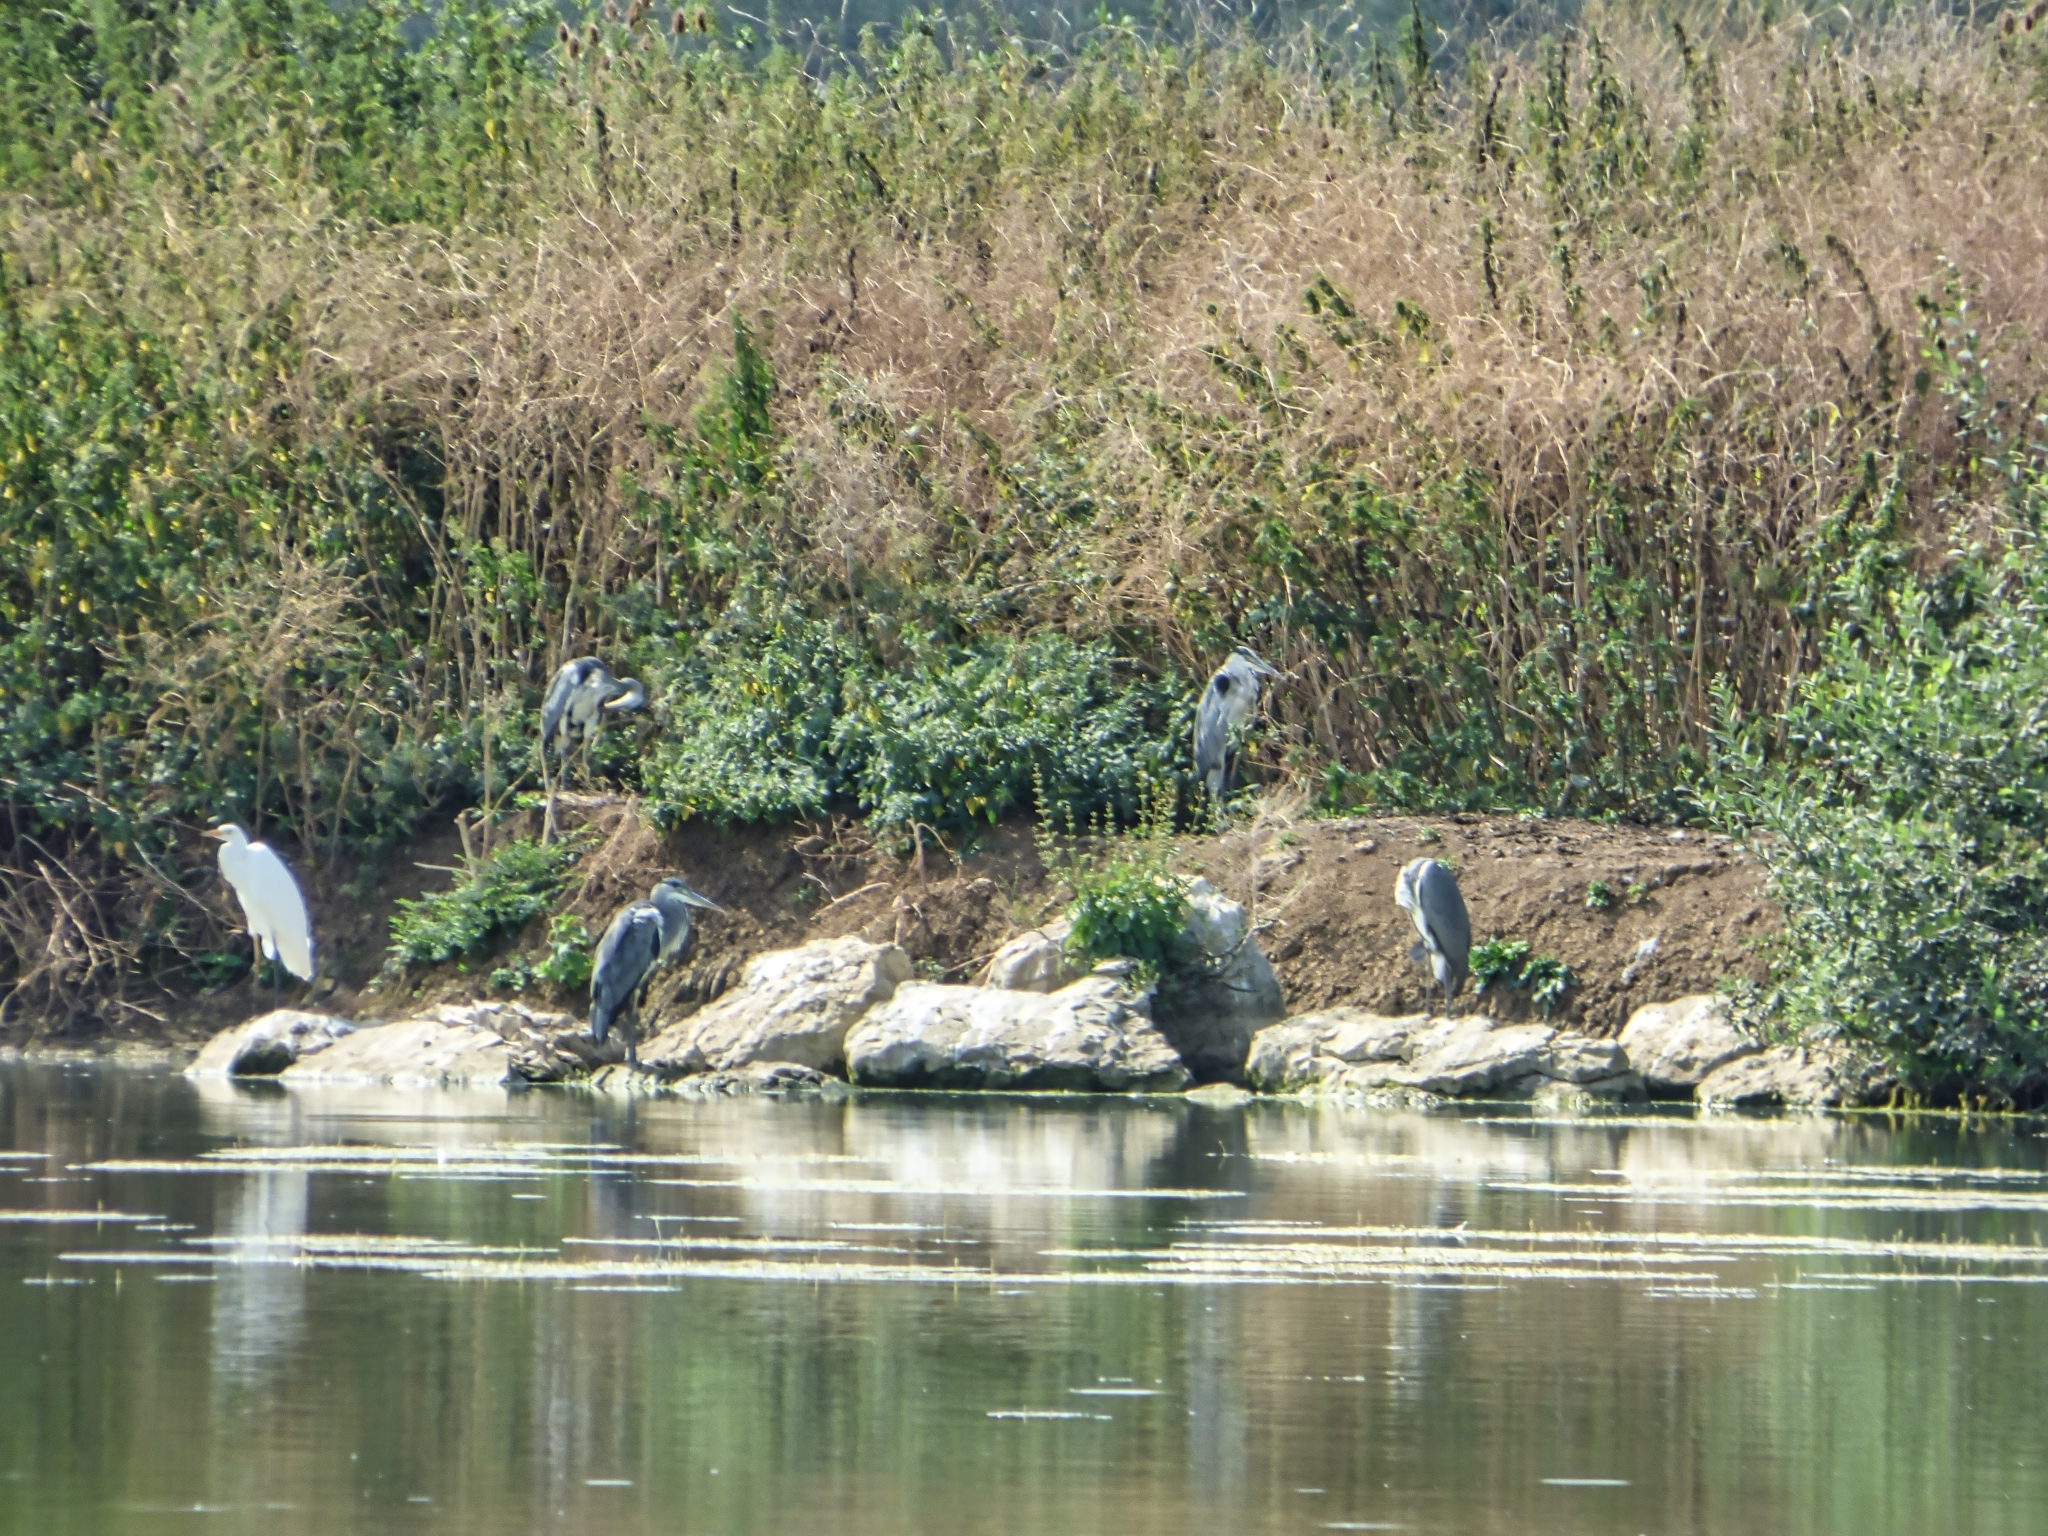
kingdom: Animalia
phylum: Chordata
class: Aves
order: Pelecaniformes
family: Ardeidae
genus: Ardea
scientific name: Ardea alba
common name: Great egret
